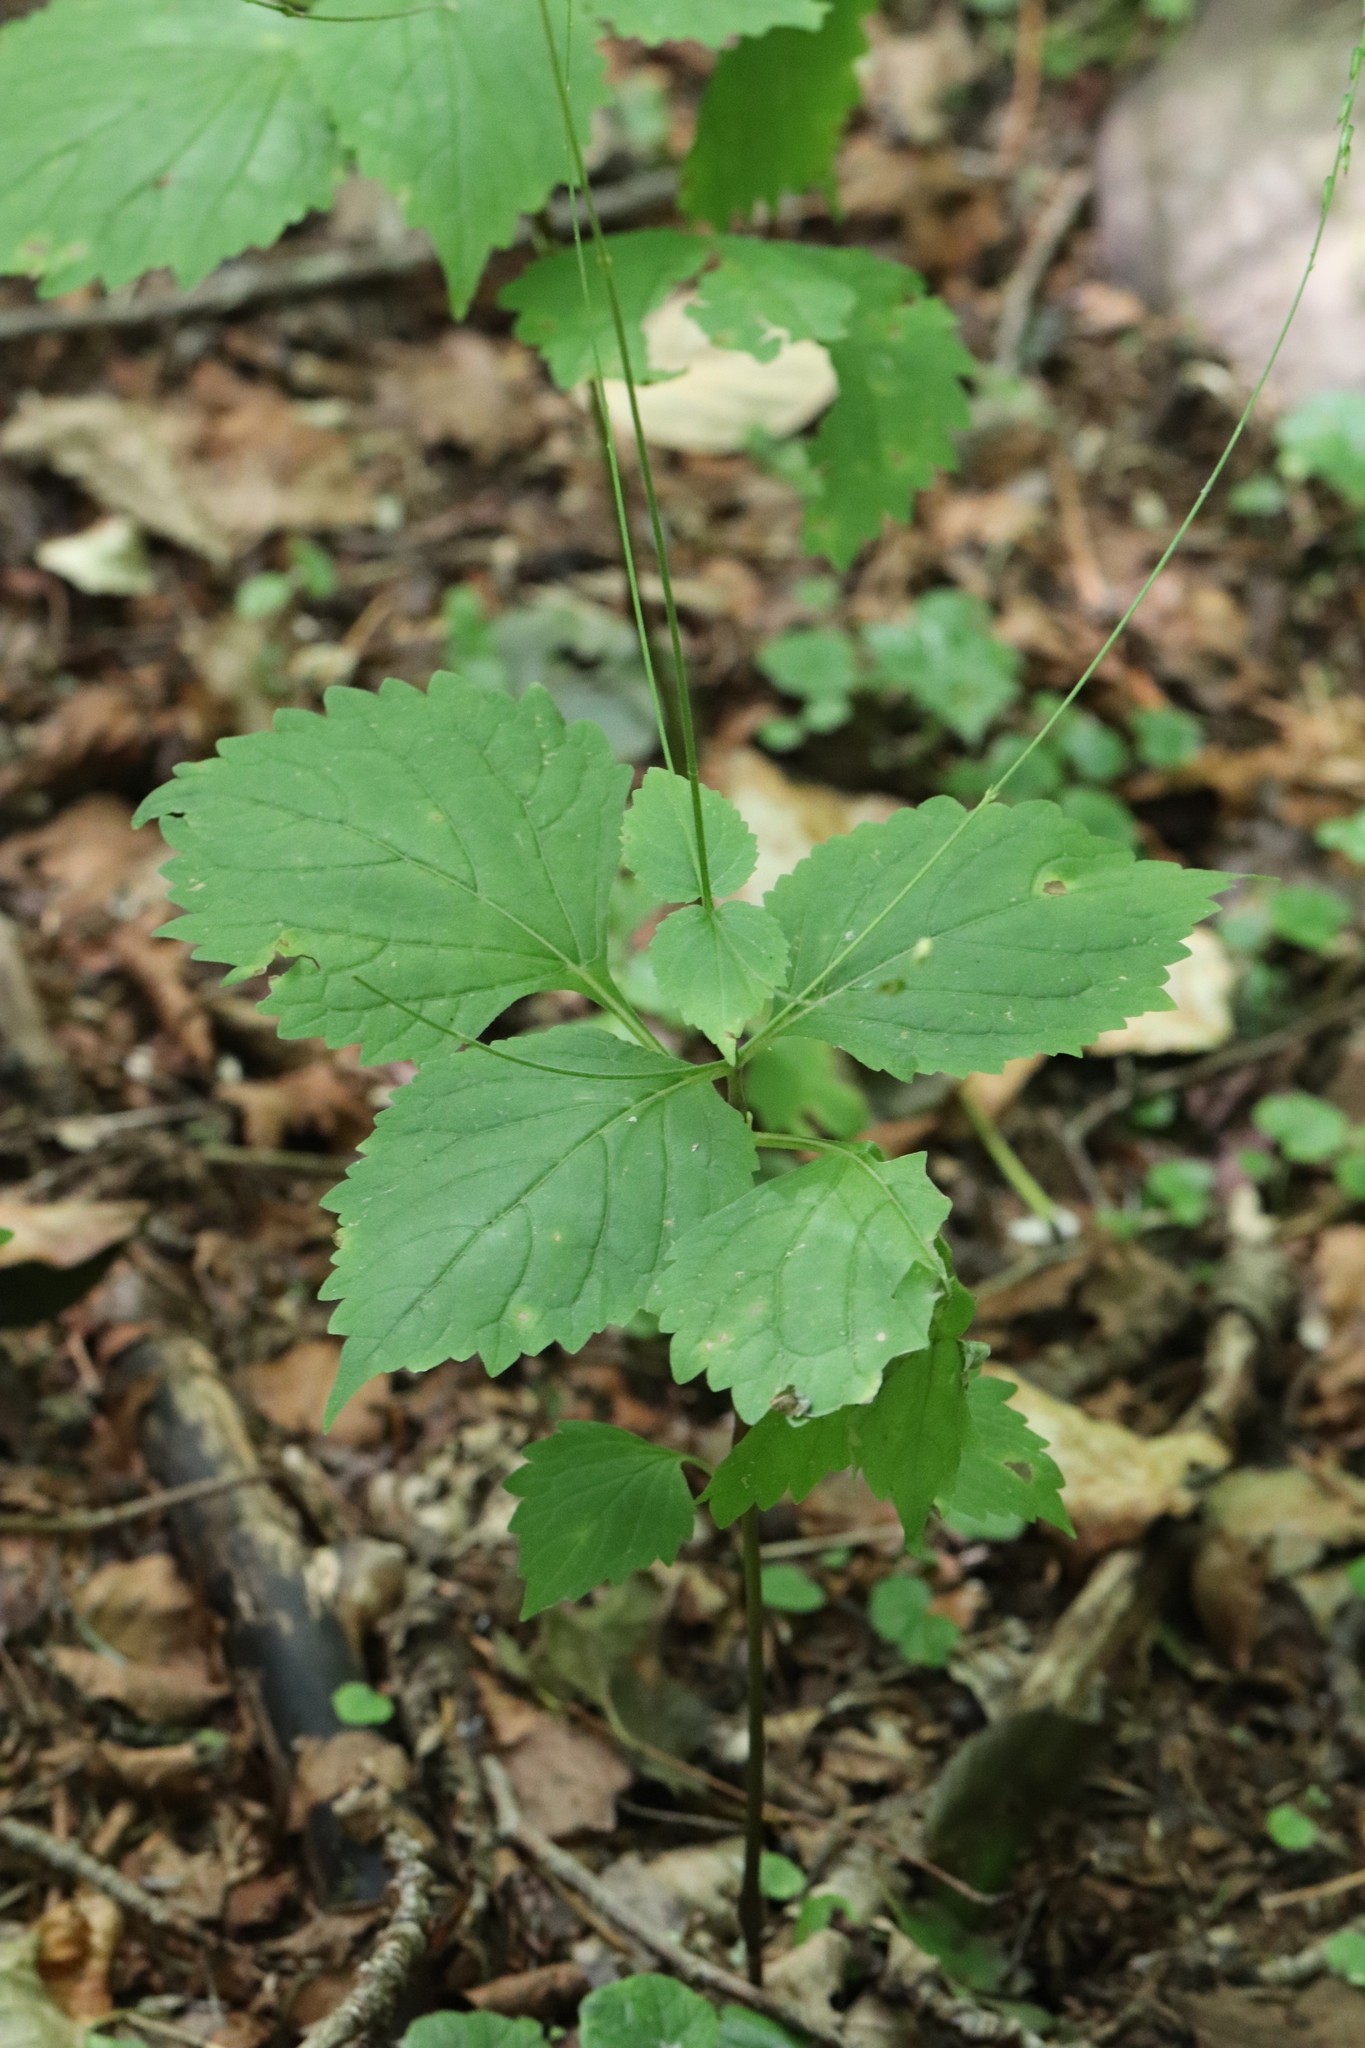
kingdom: Plantae
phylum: Tracheophyta
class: Magnoliopsida
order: Lamiales
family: Phrymaceae
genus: Phryma
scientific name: Phryma nana
